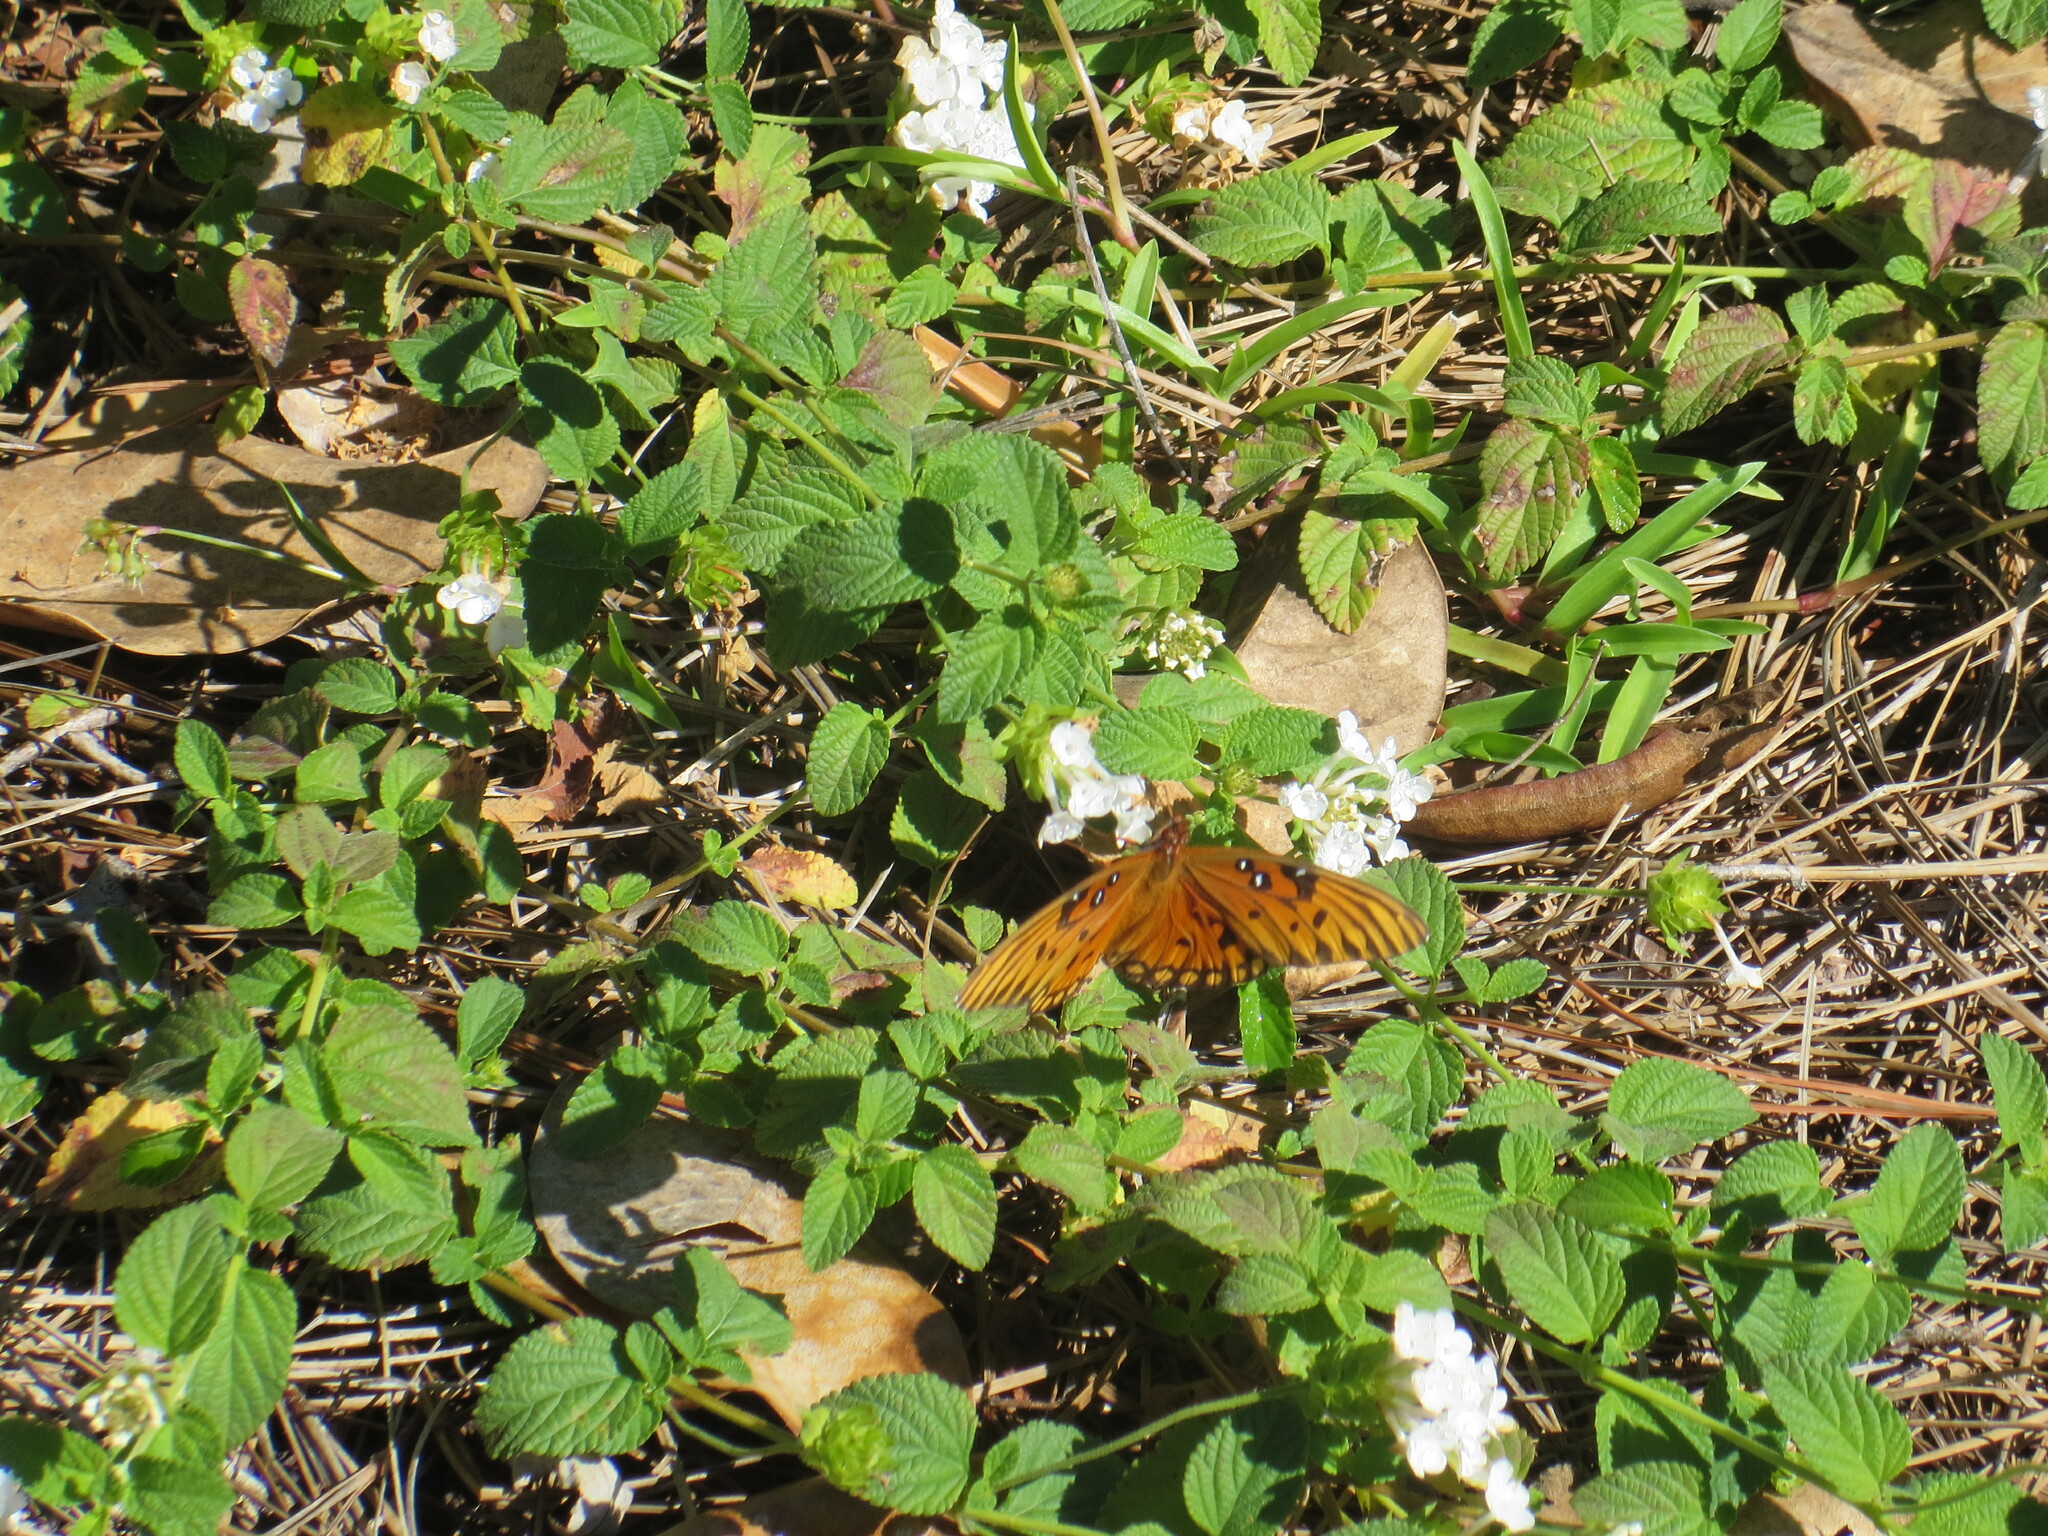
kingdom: Animalia
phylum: Arthropoda
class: Insecta
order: Lepidoptera
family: Nymphalidae
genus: Dione
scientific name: Dione vanillae
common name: Gulf fritillary
